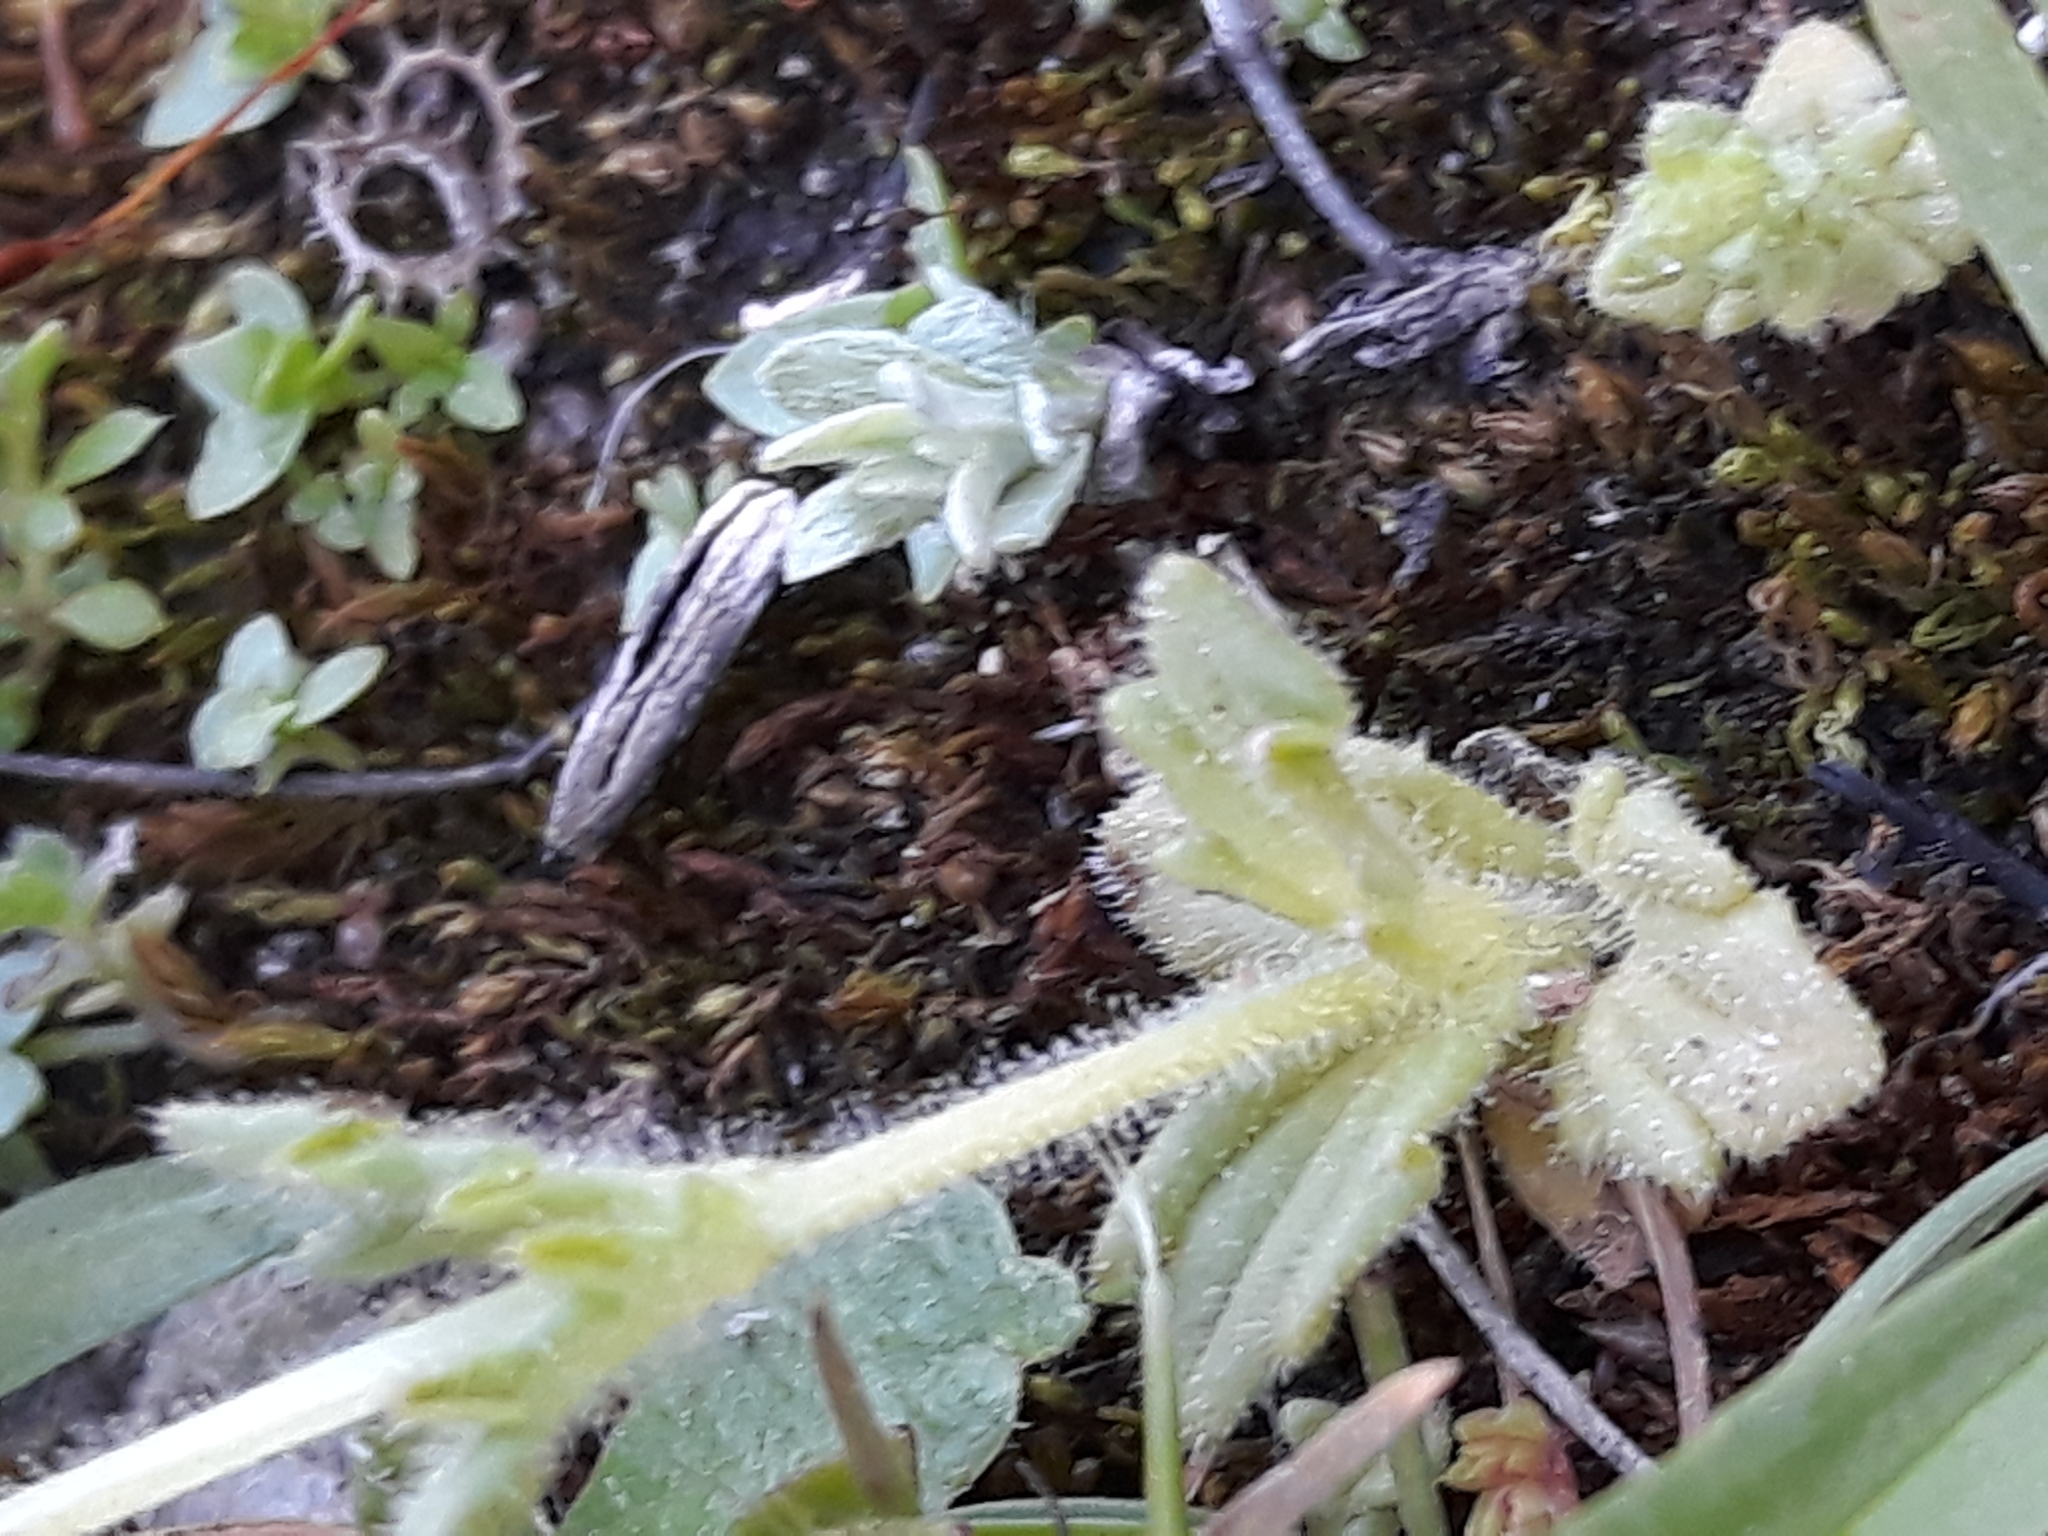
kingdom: Plantae
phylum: Tracheophyta
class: Magnoliopsida
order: Lamiales
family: Orobanchaceae
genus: Parentucellia
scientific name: Parentucellia latifolia
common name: Broadleaf glandweed
